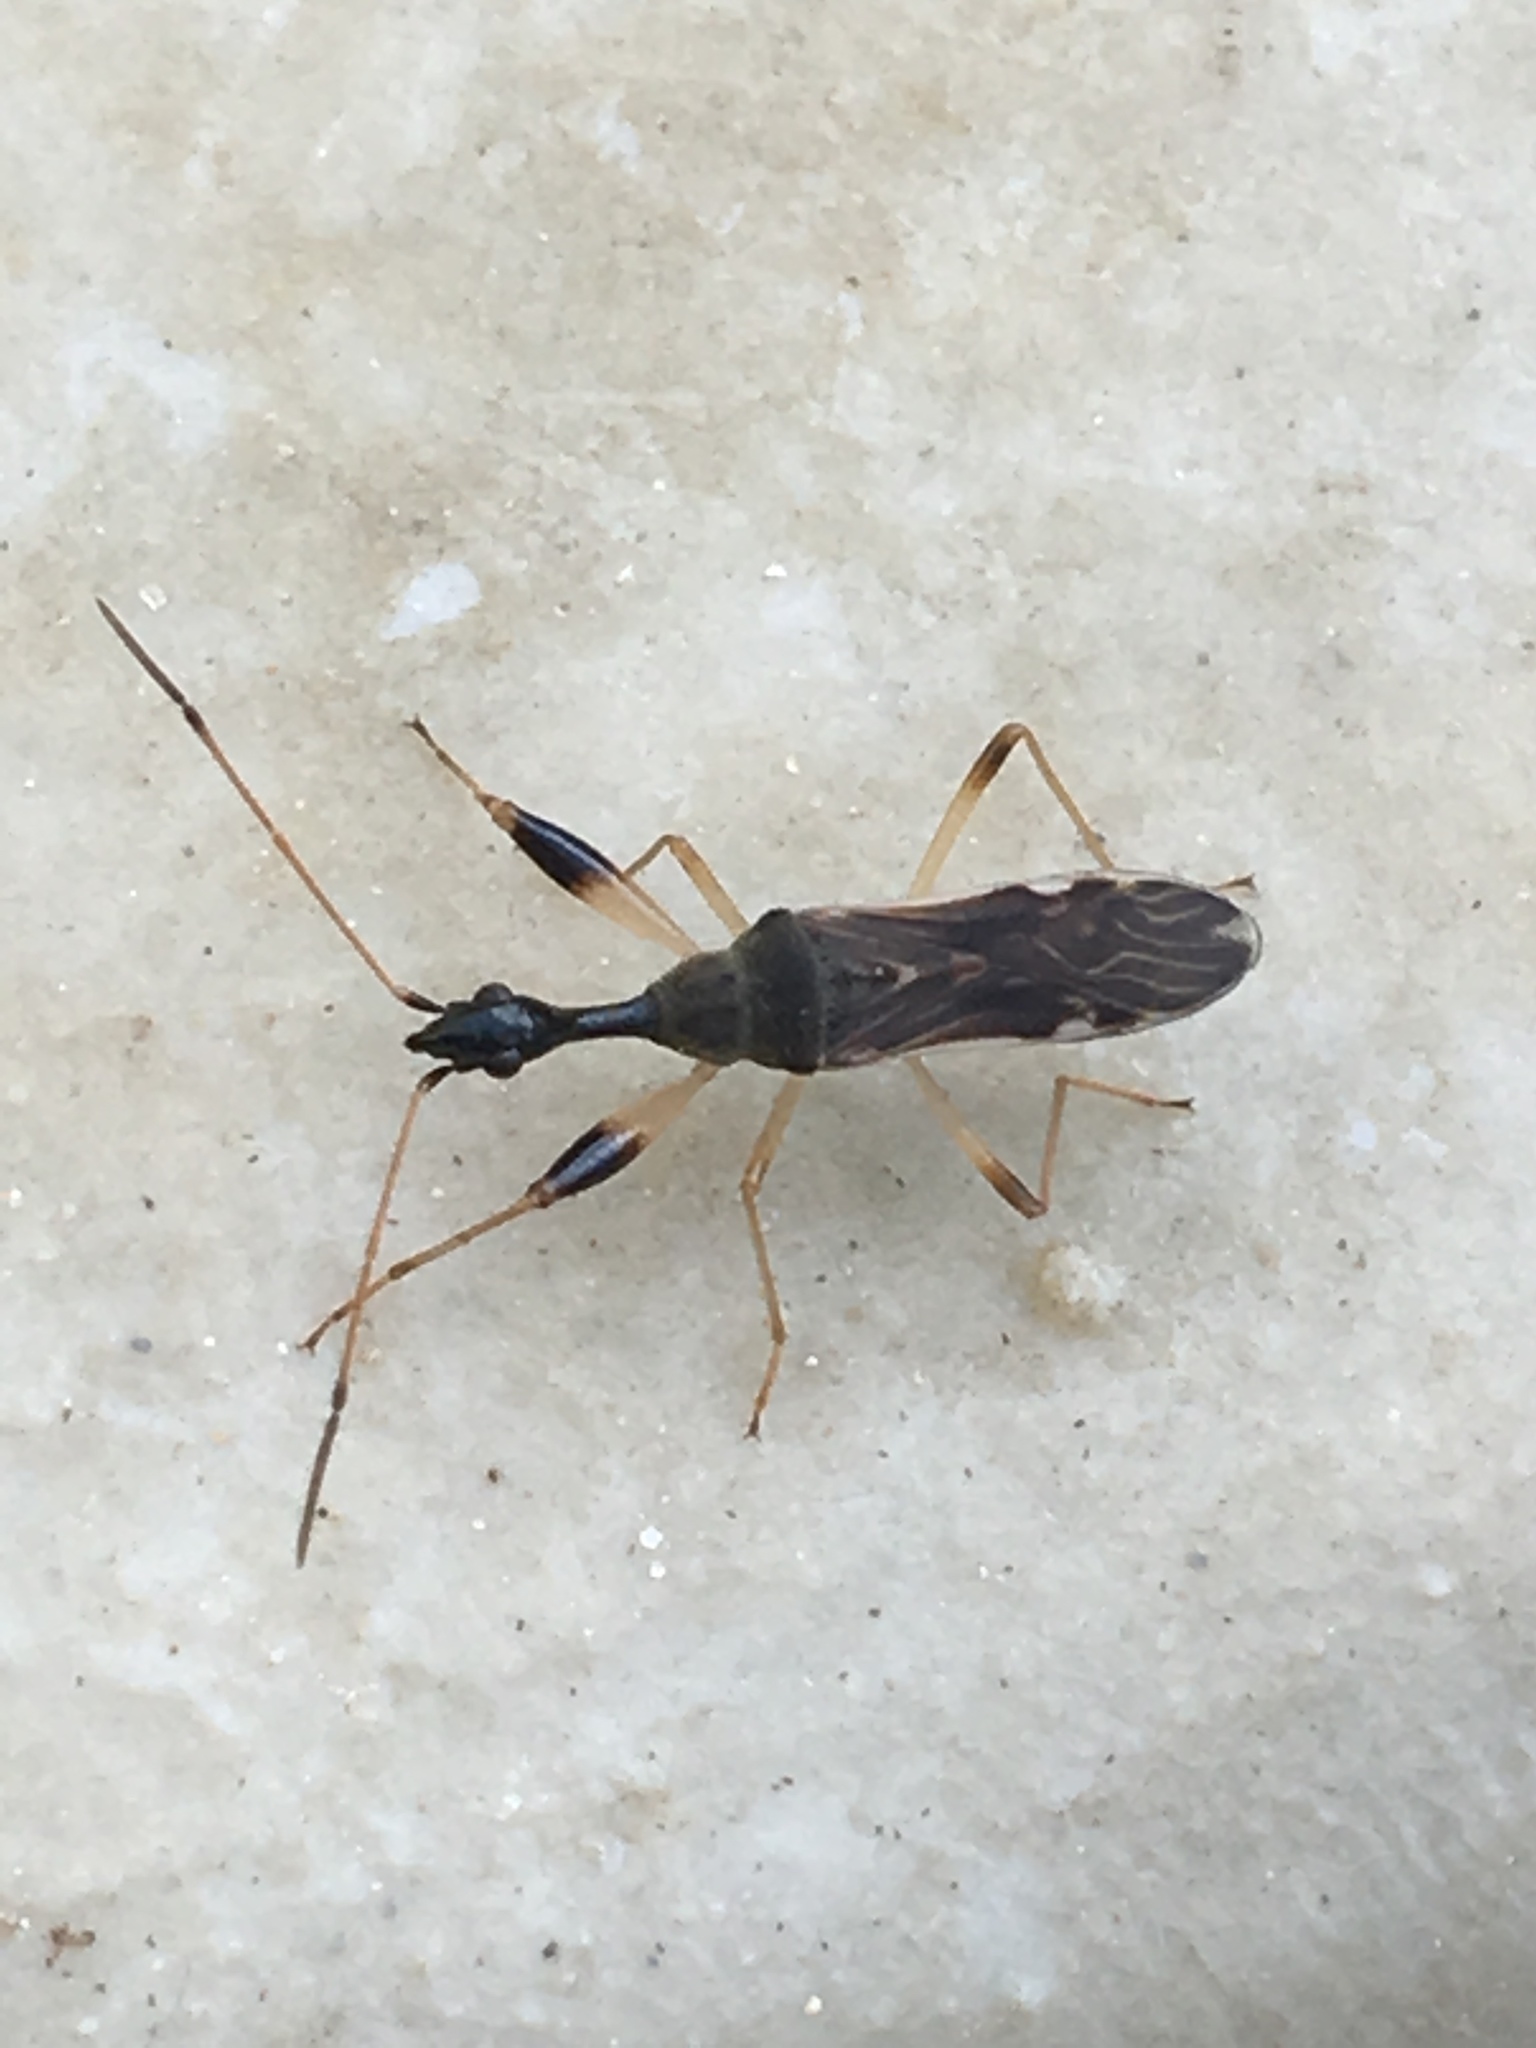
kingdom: Animalia
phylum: Arthropoda
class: Insecta
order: Hemiptera
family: Rhyparochromidae
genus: Myodocha
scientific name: Myodocha serripes
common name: Long-necked seed bug
